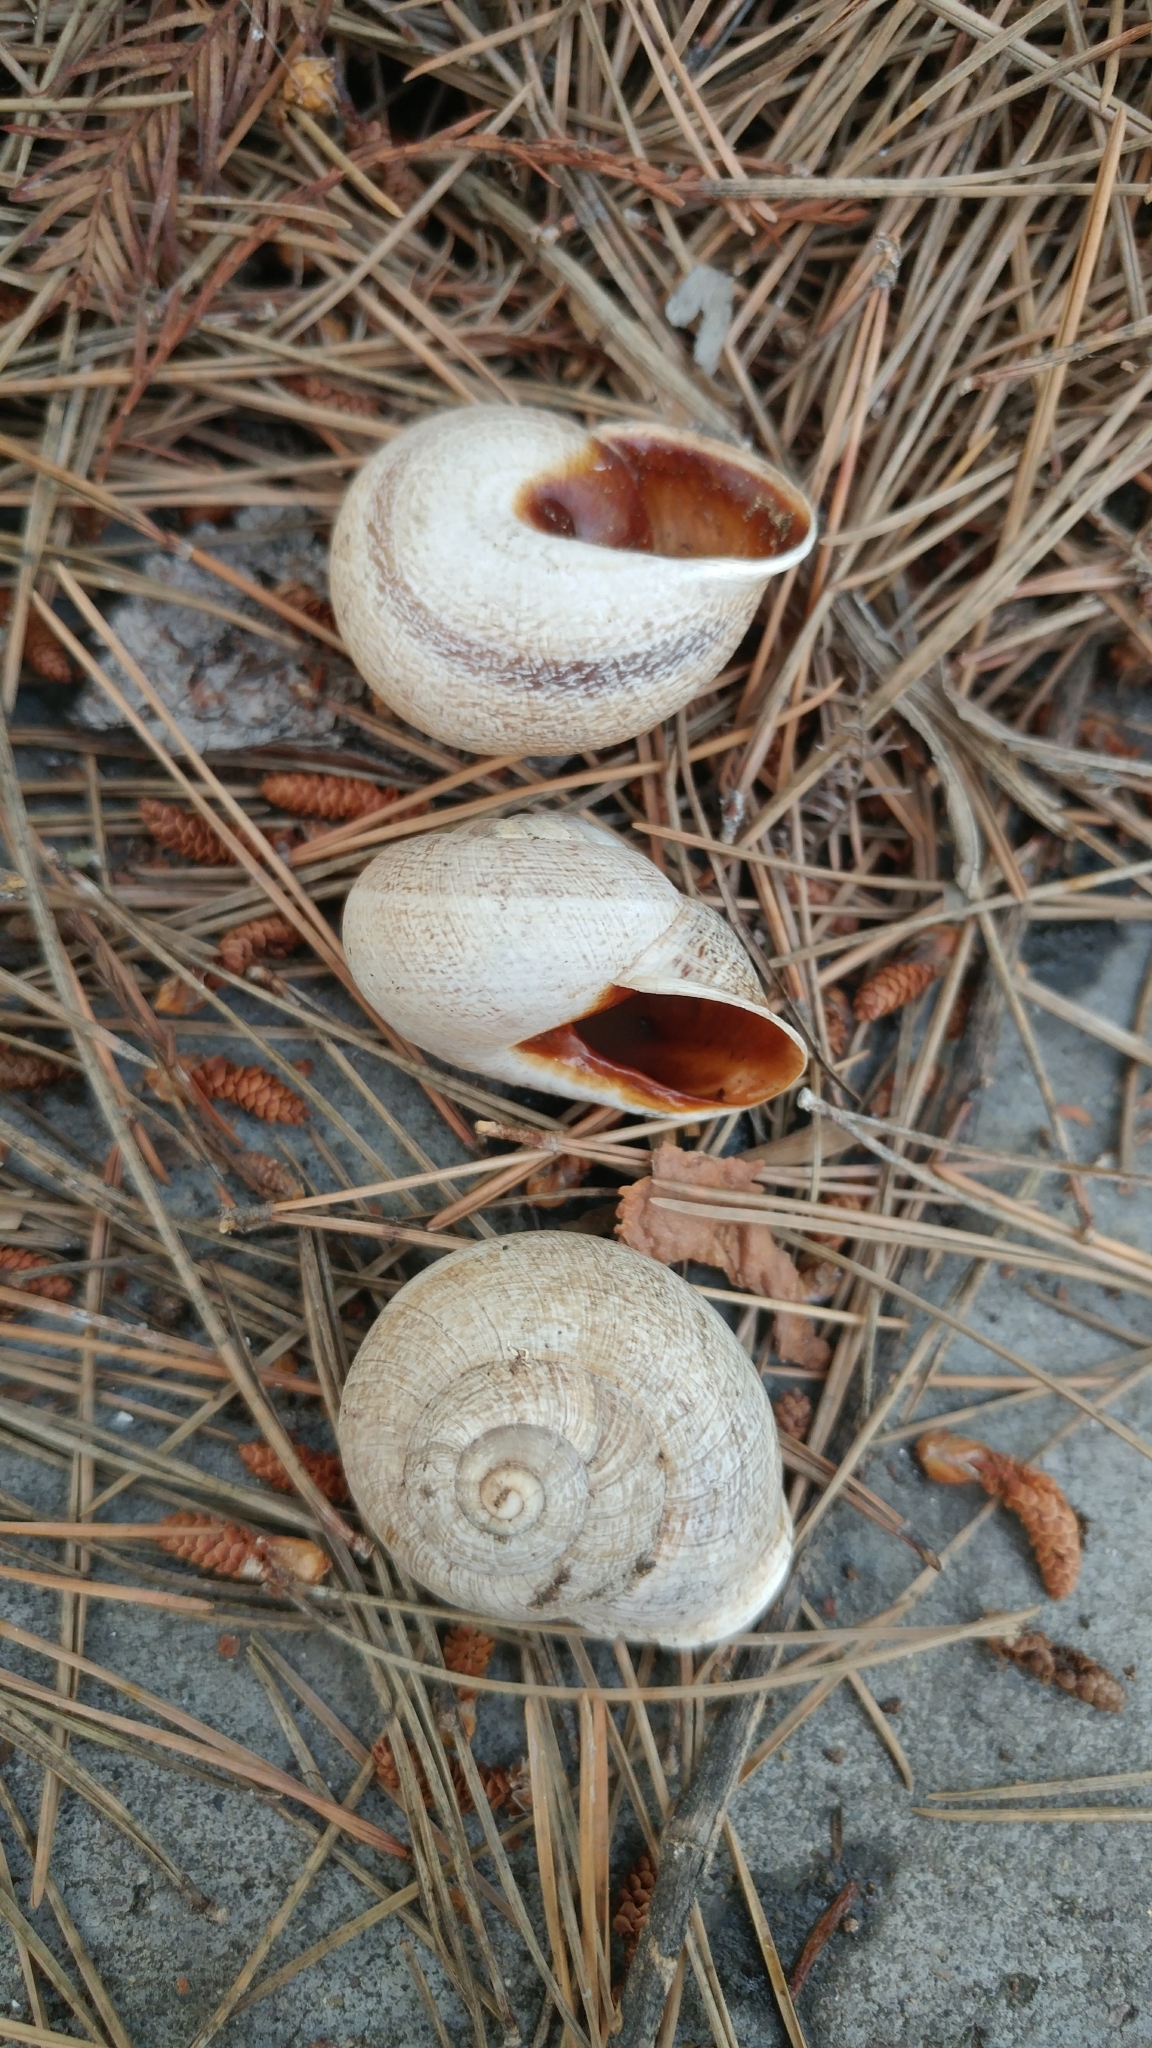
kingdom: Animalia
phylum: Mollusca
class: Gastropoda
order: Stylommatophora
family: Helicidae
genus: Otala
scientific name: Otala lactea
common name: Milk snail
